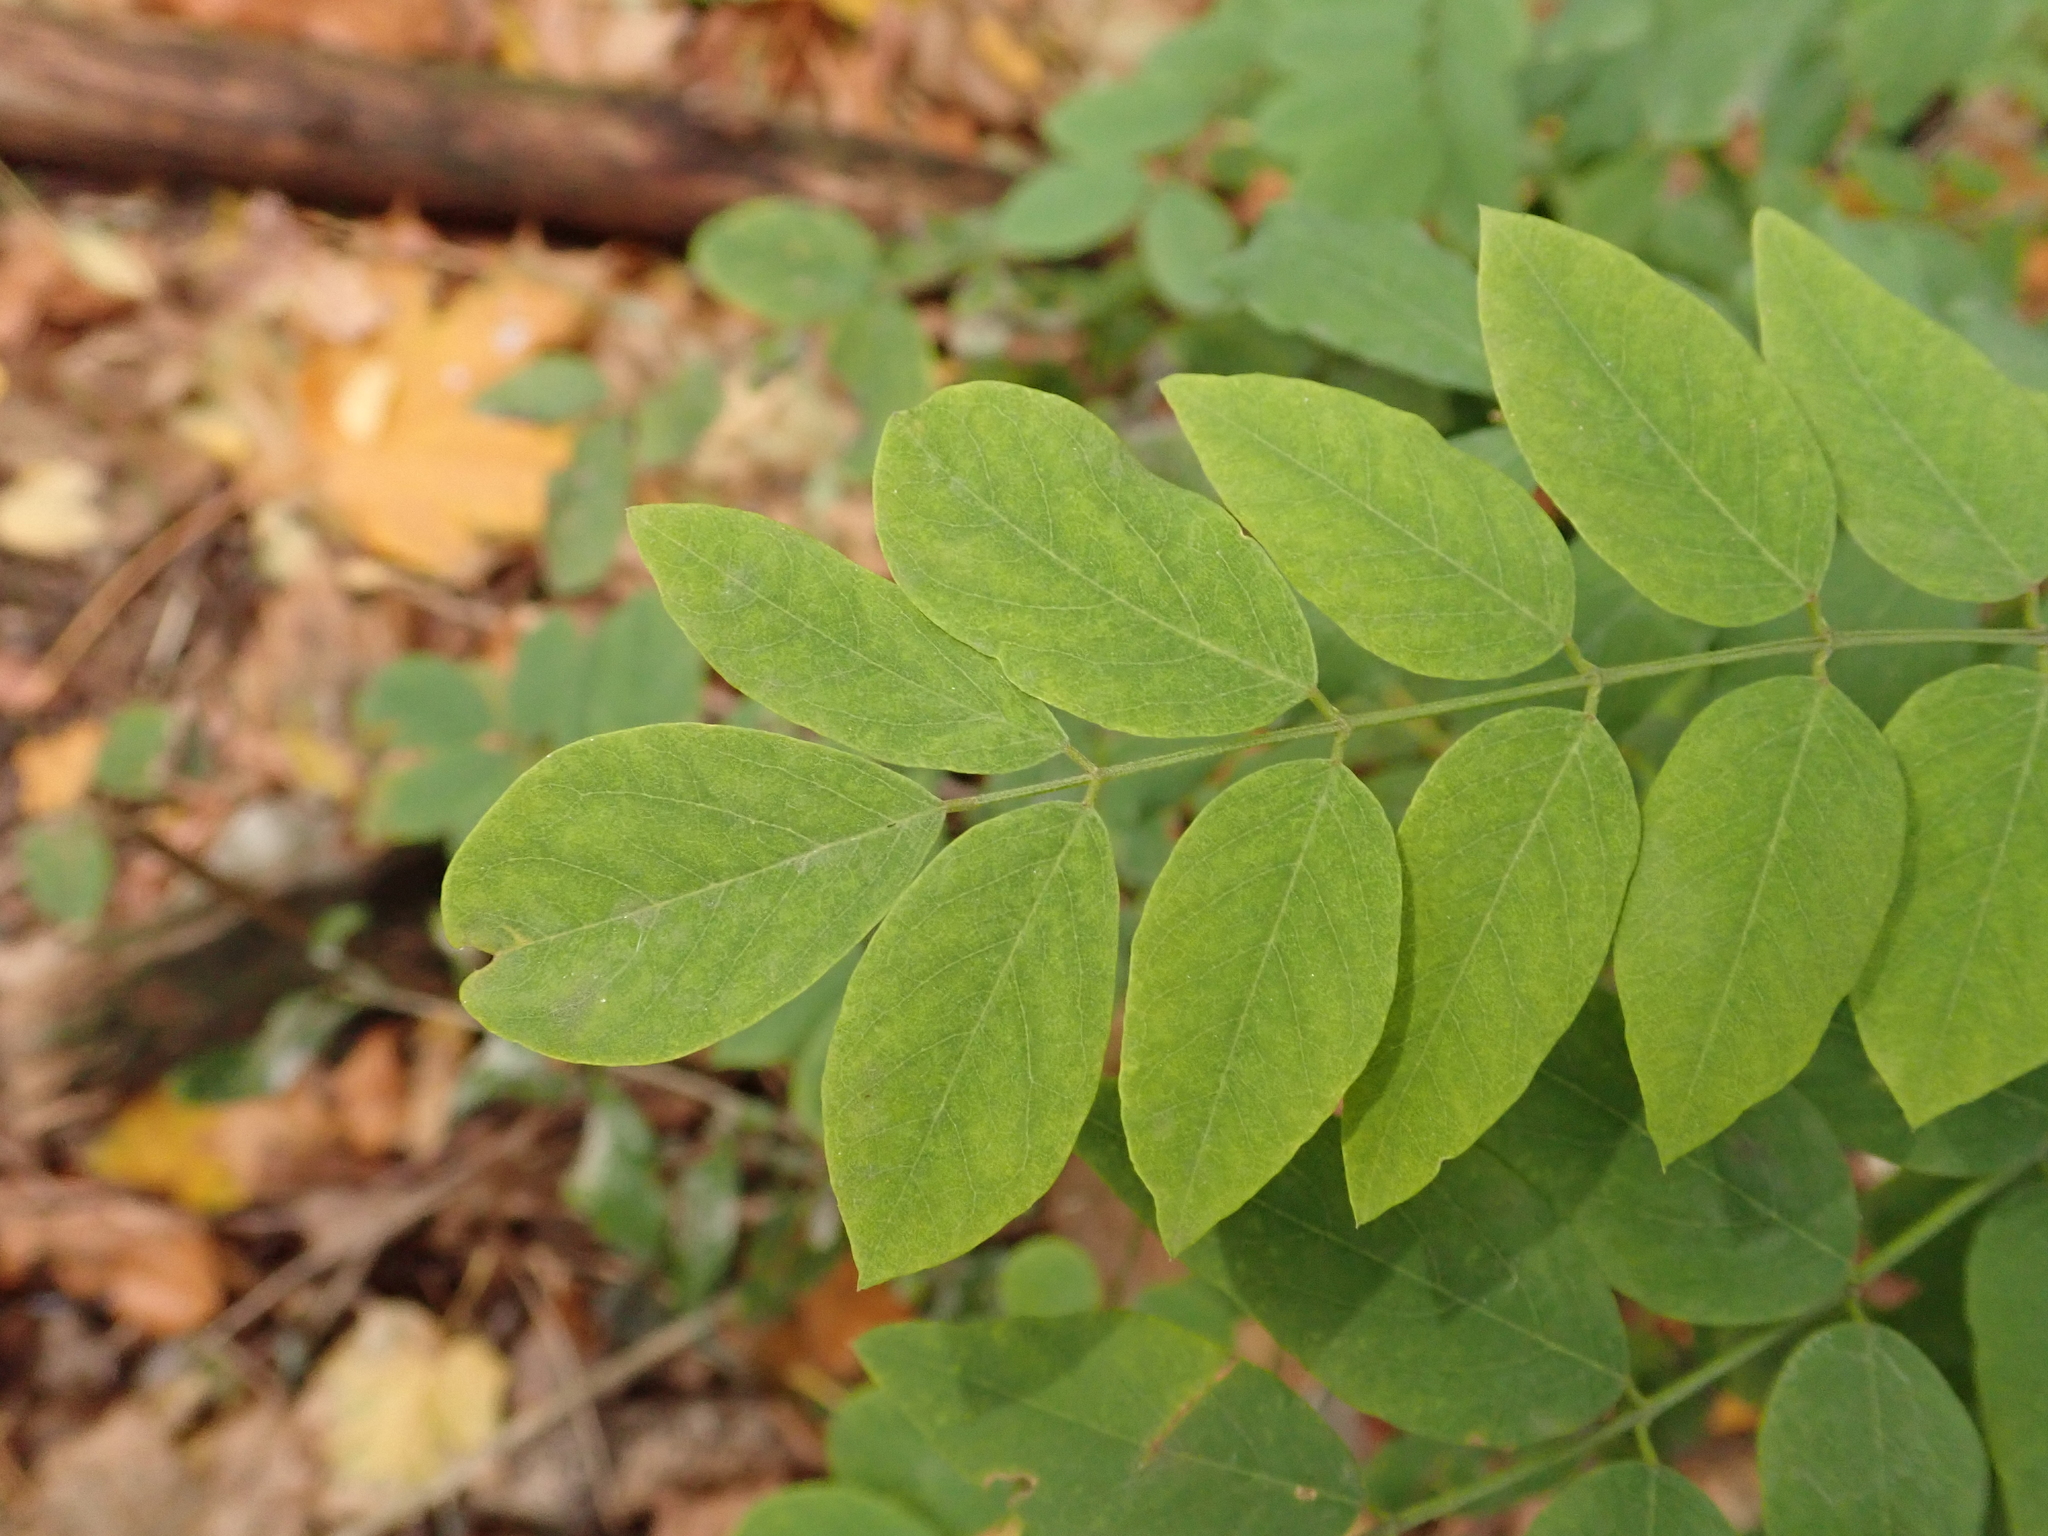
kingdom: Plantae
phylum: Tracheophyta
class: Magnoliopsida
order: Fabales
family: Fabaceae
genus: Robinia
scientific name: Robinia pseudoacacia
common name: Black locust
